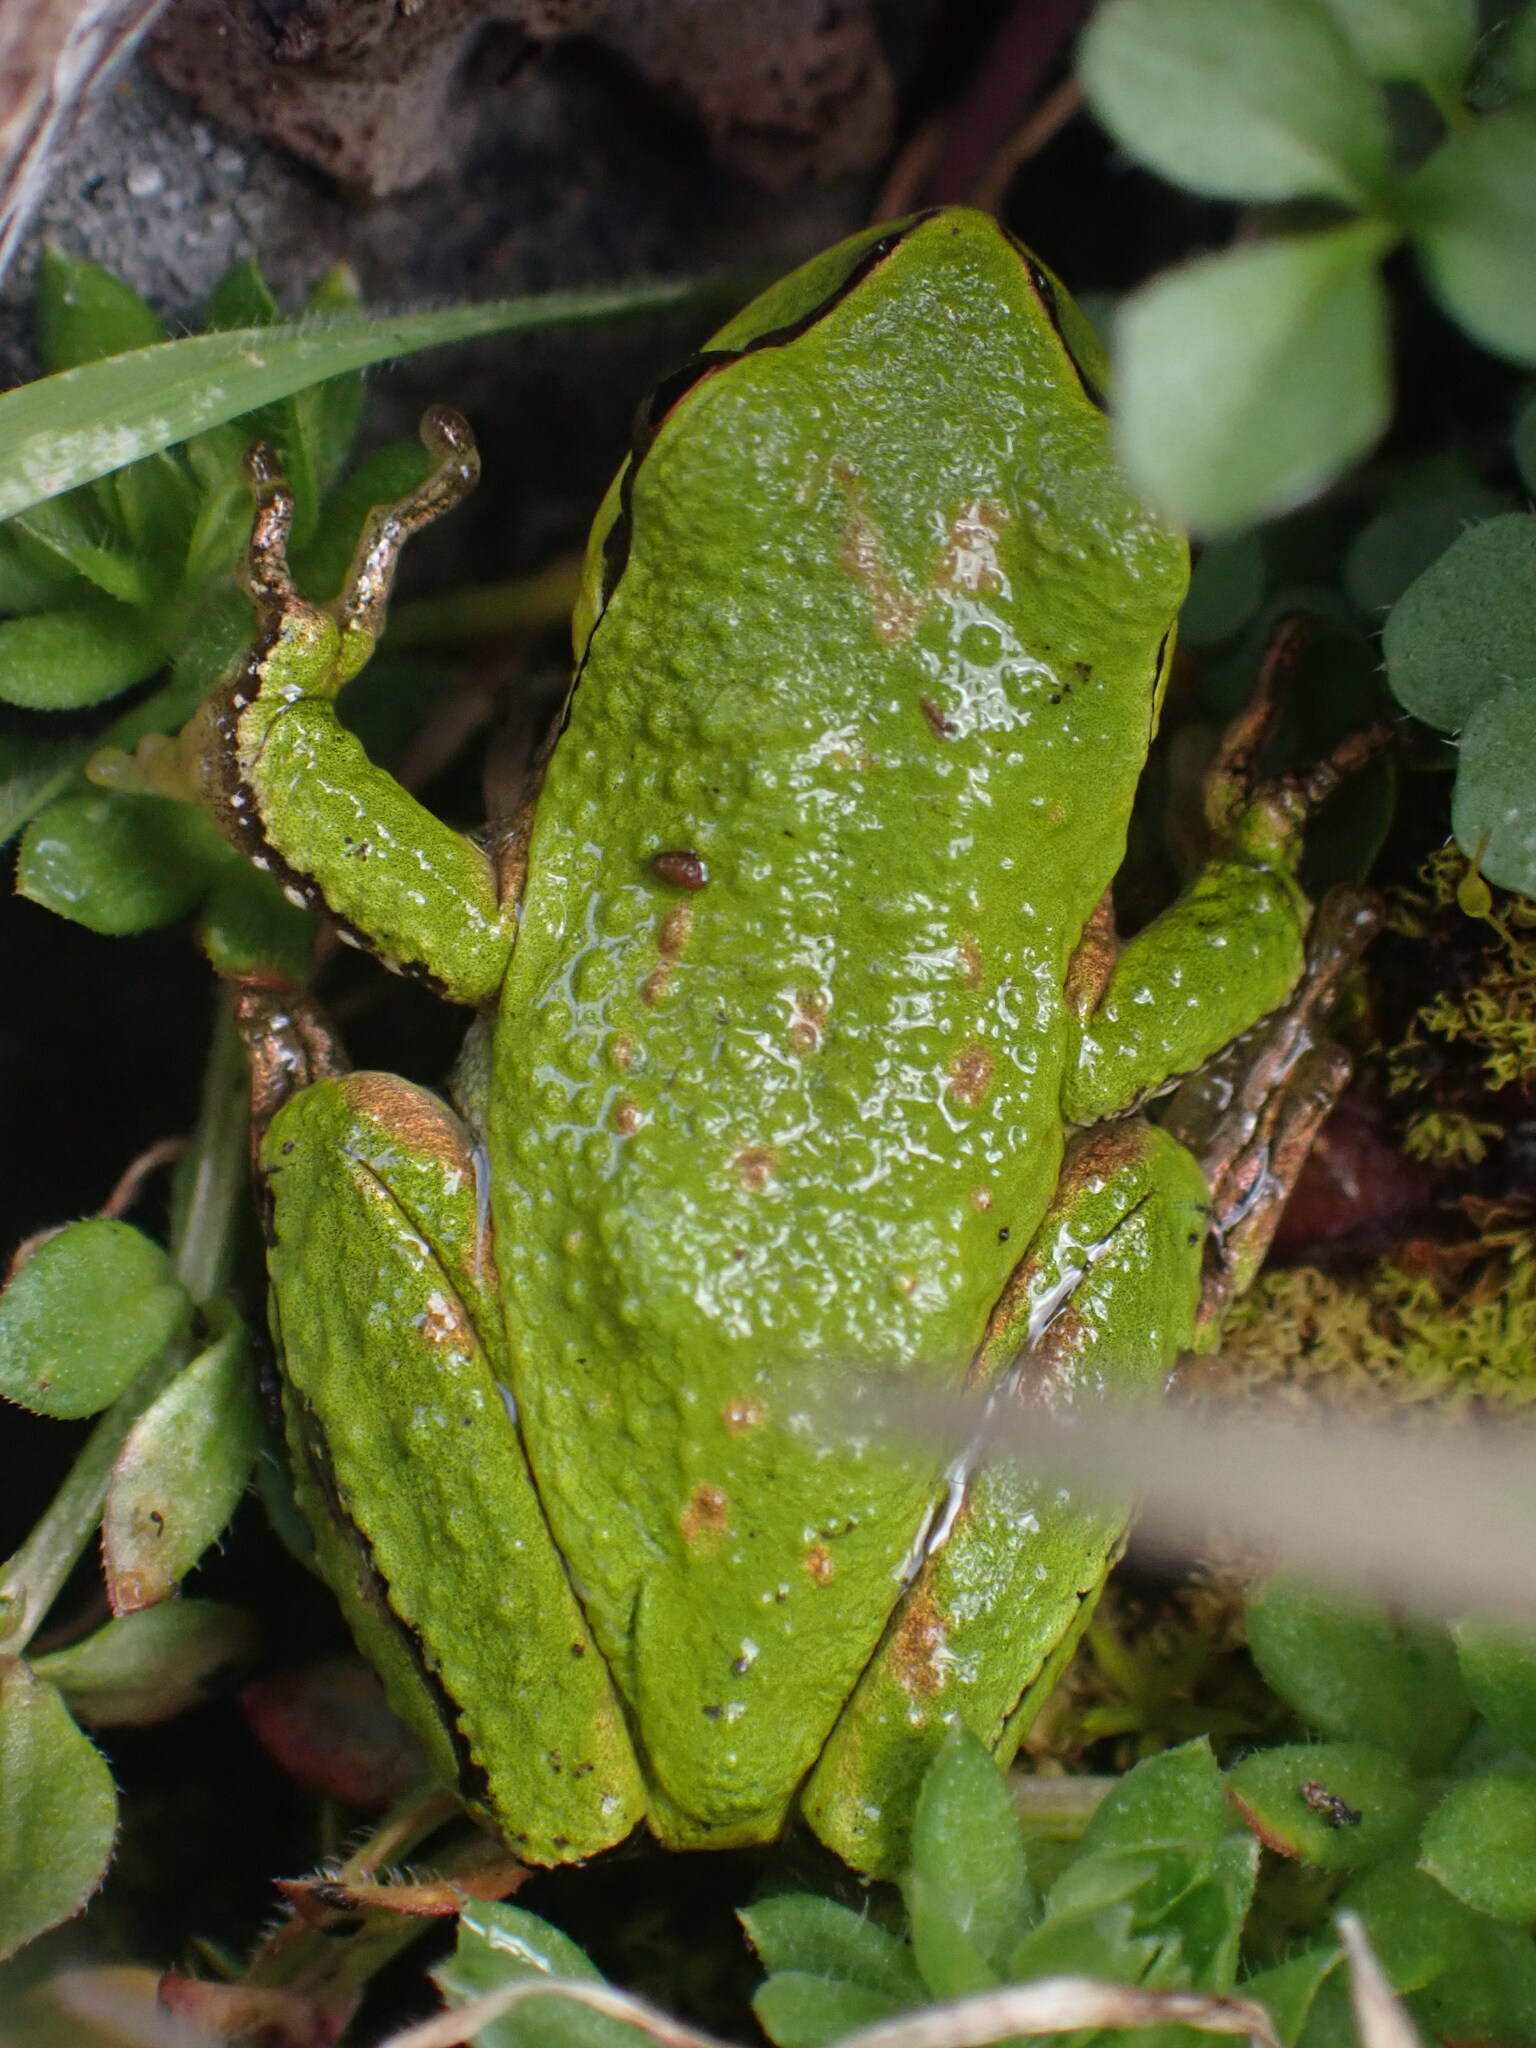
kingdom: Animalia
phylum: Chordata
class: Amphibia
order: Anura
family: Hylidae
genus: Pseudacris
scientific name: Pseudacris regilla
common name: Pacific chorus frog
